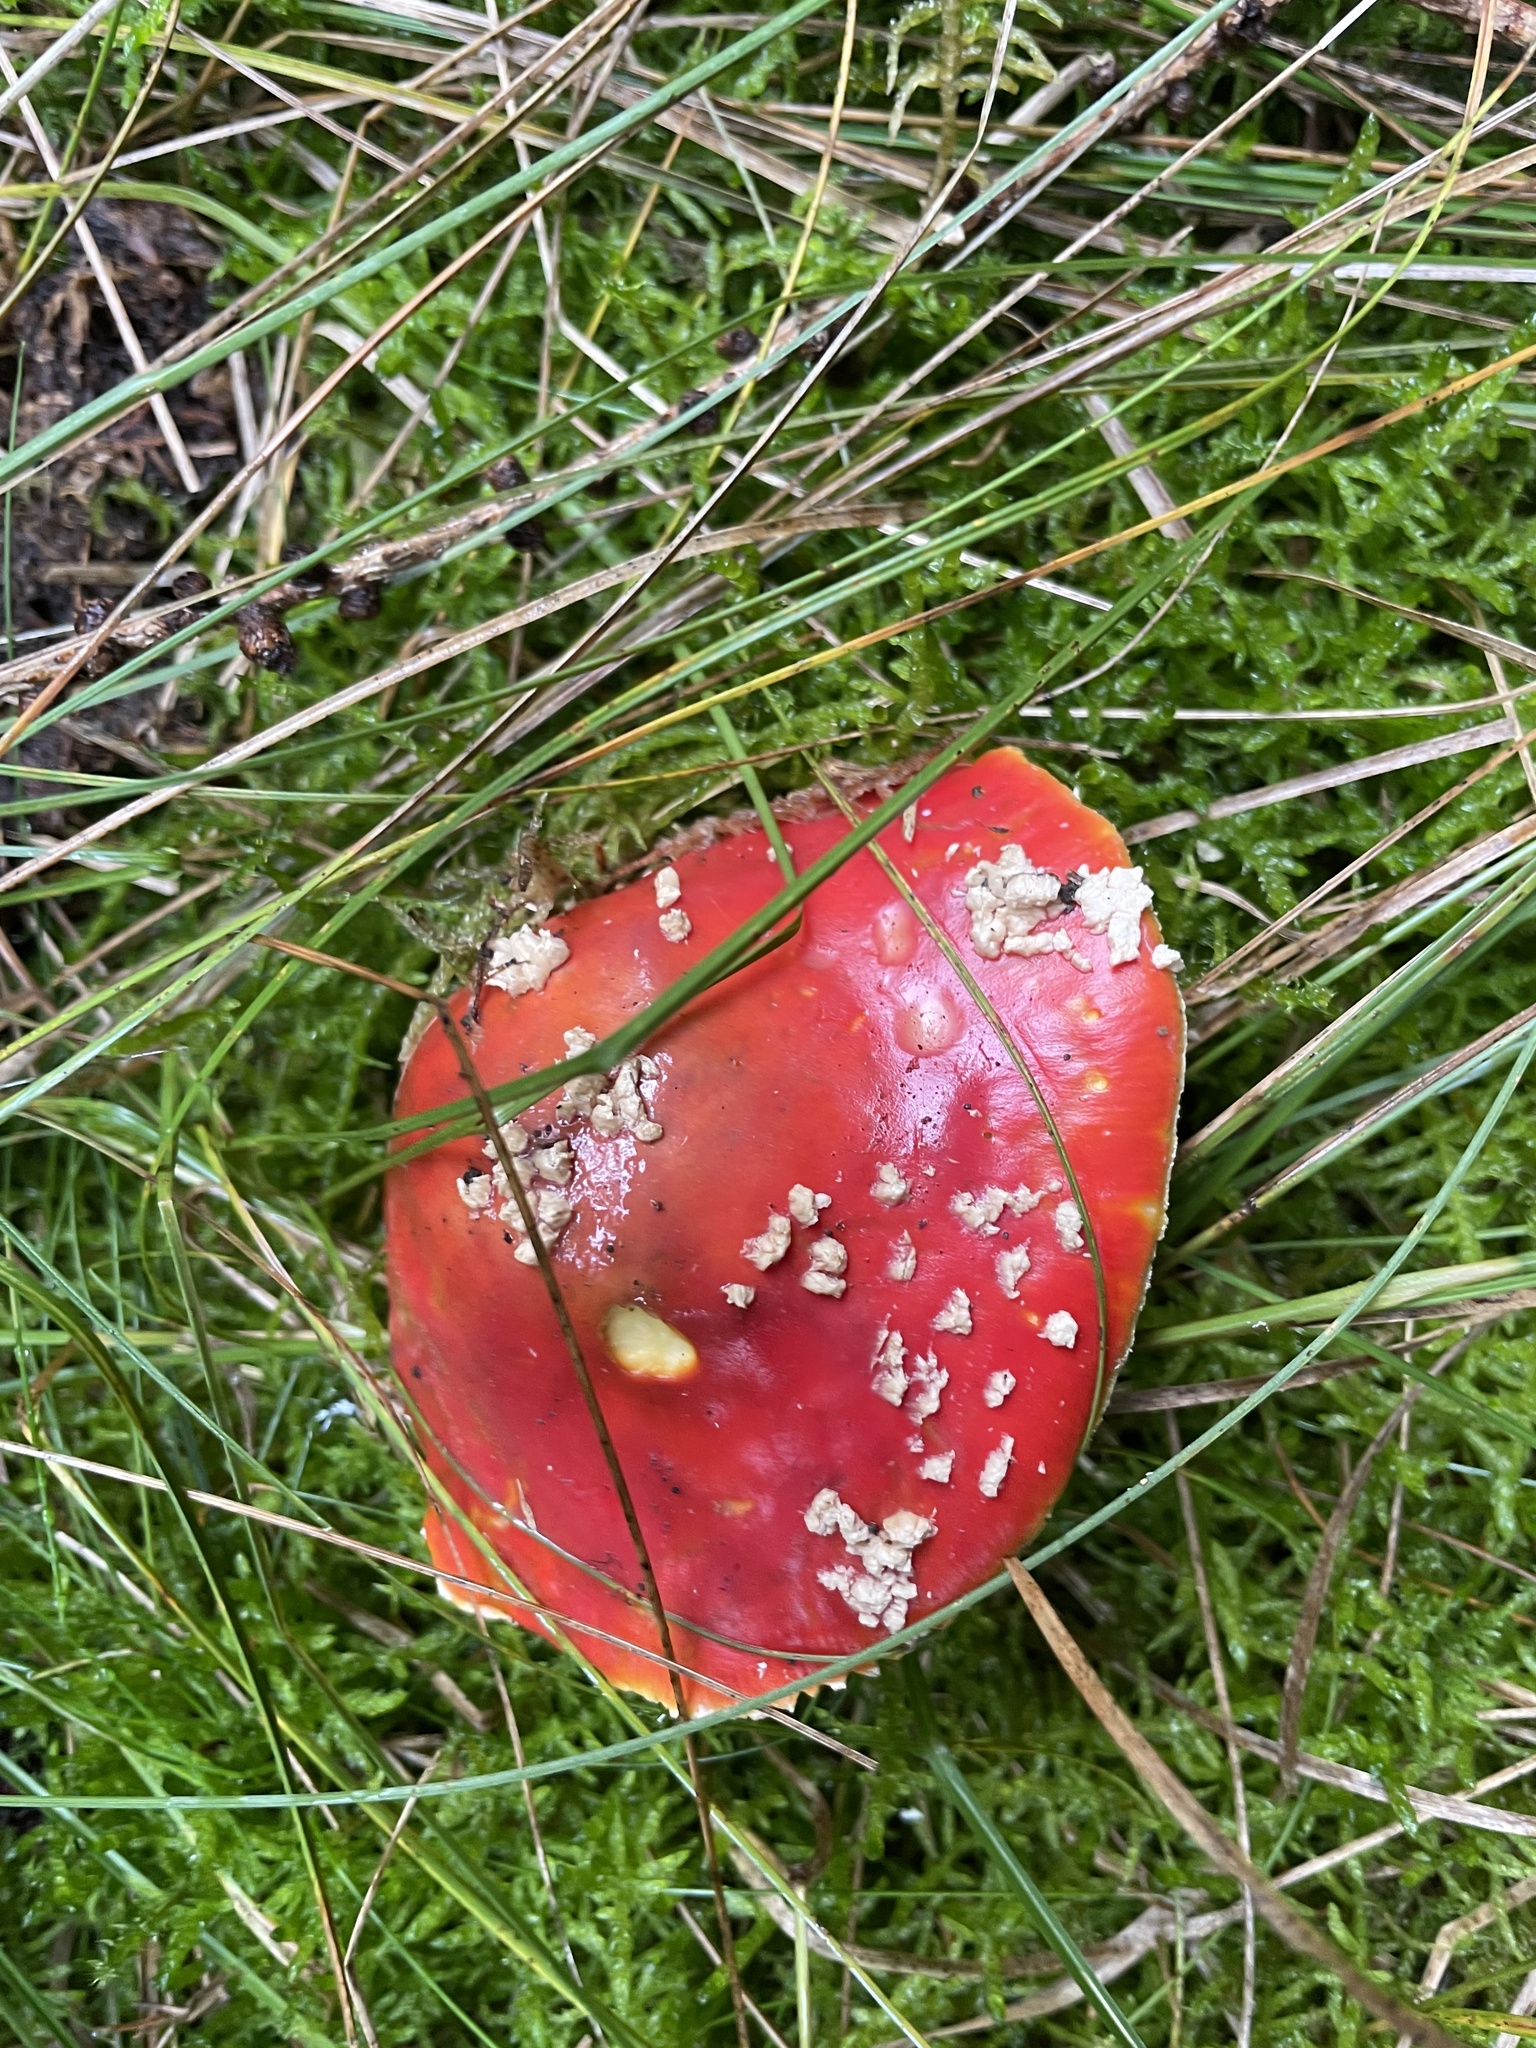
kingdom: Fungi
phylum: Basidiomycota
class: Agaricomycetes
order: Agaricales
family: Amanitaceae
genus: Amanita
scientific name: Amanita muscaria
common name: Fly agaric
